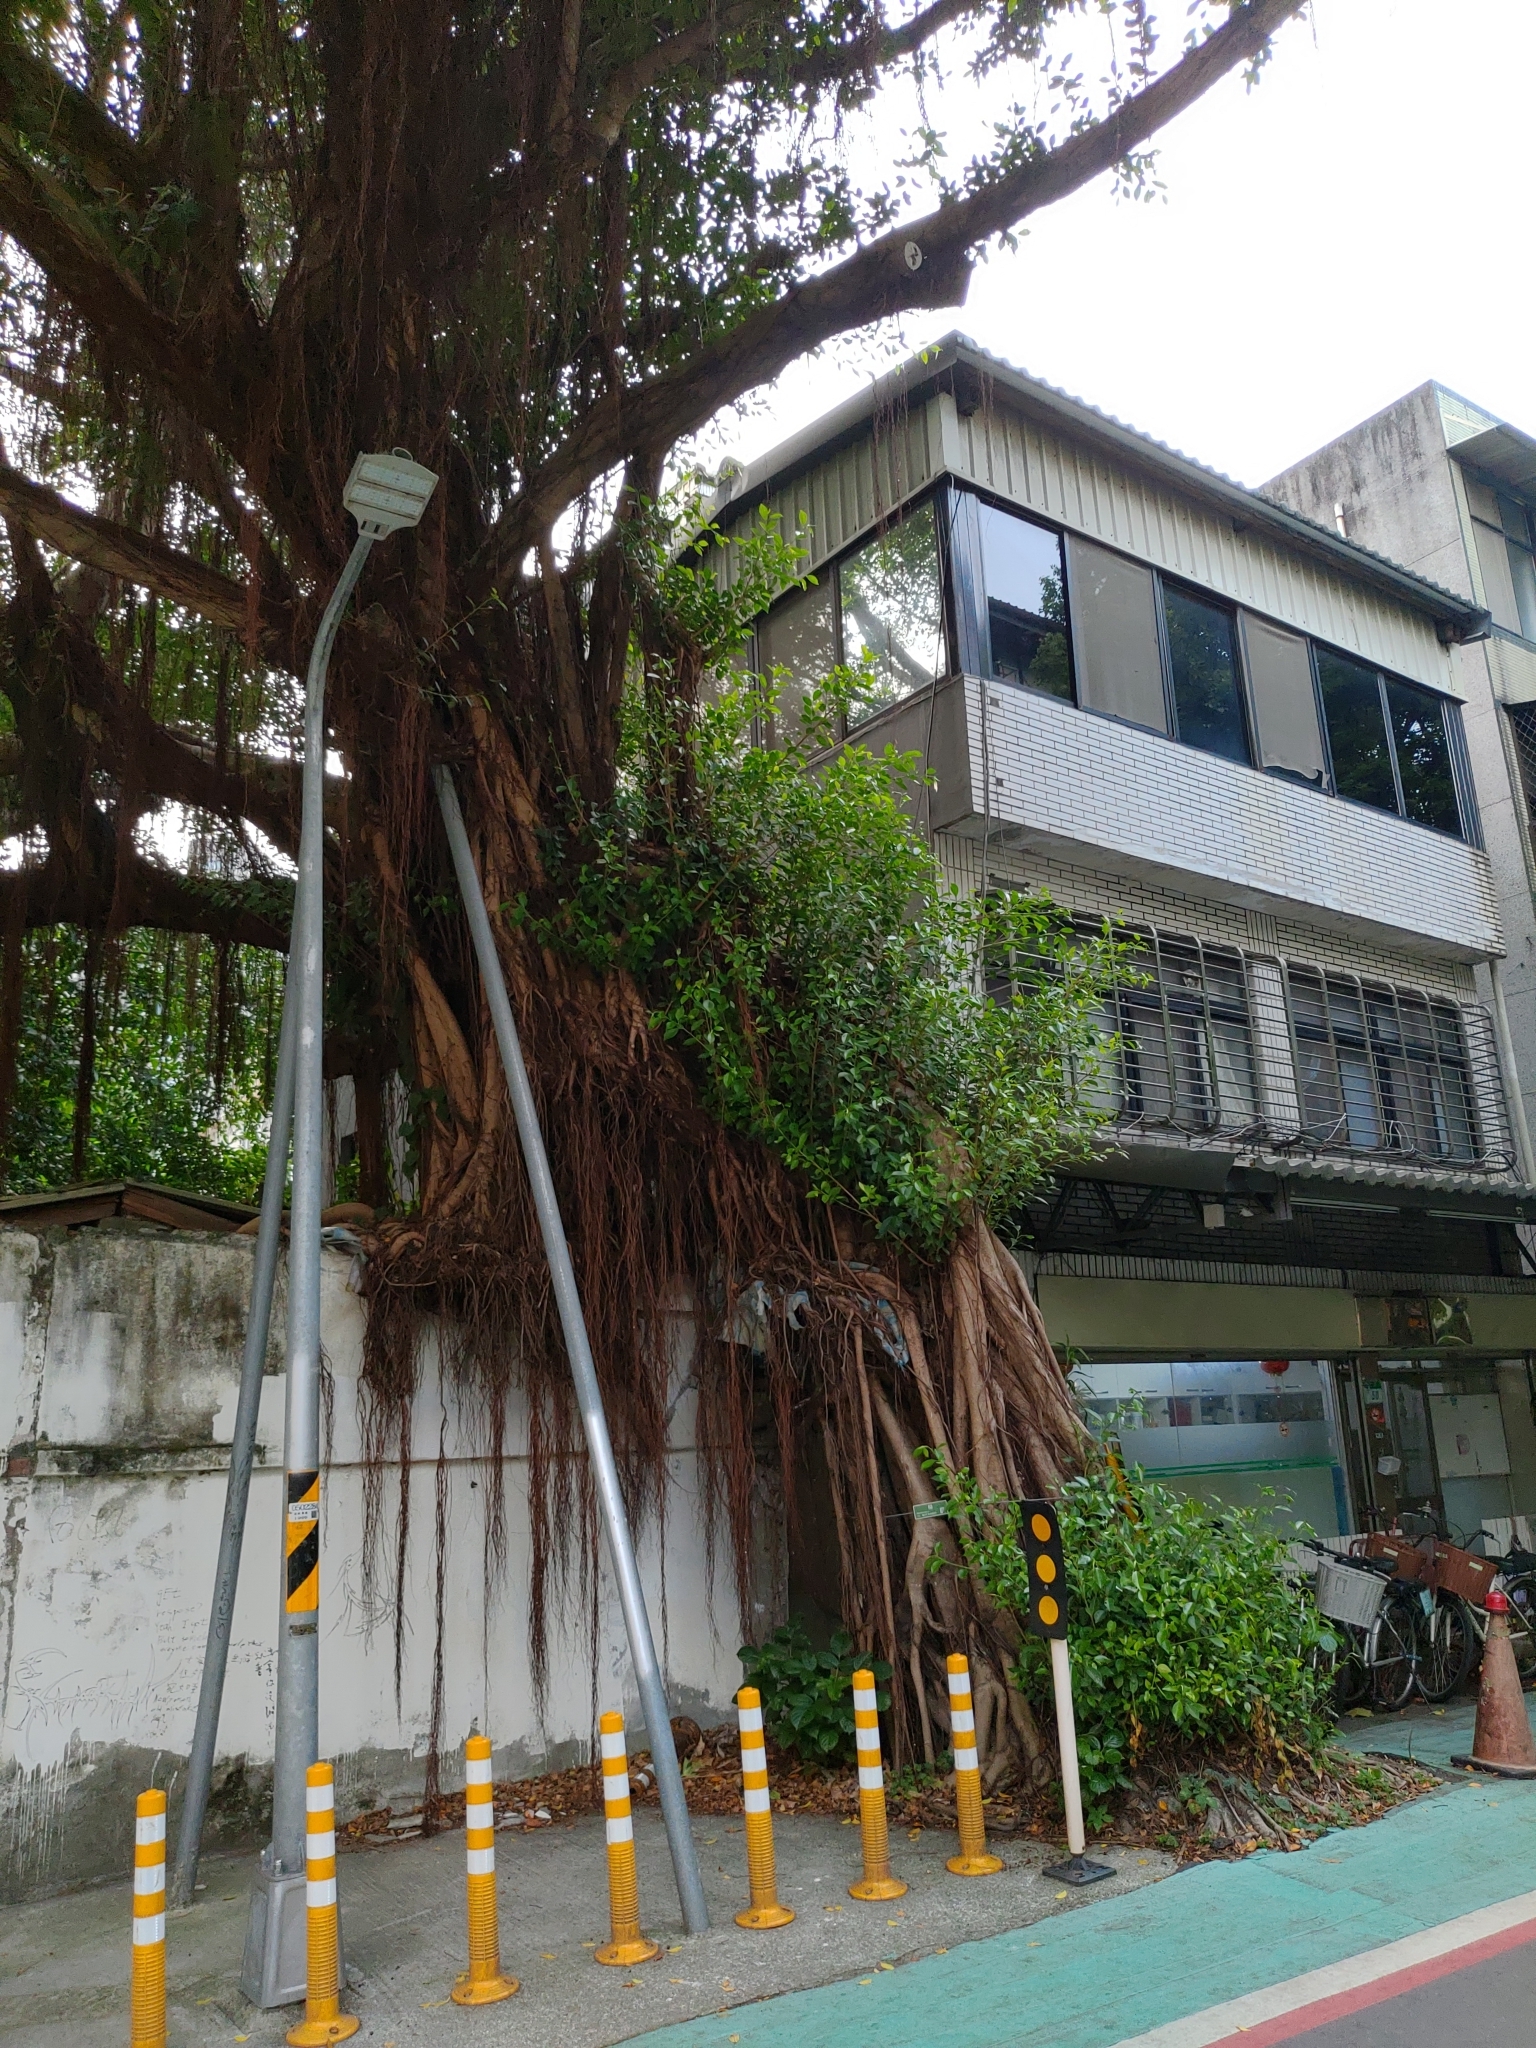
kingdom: Plantae
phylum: Tracheophyta
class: Magnoliopsida
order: Rosales
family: Moraceae
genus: Ficus
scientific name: Ficus microcarpa
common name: Chinese banyan
